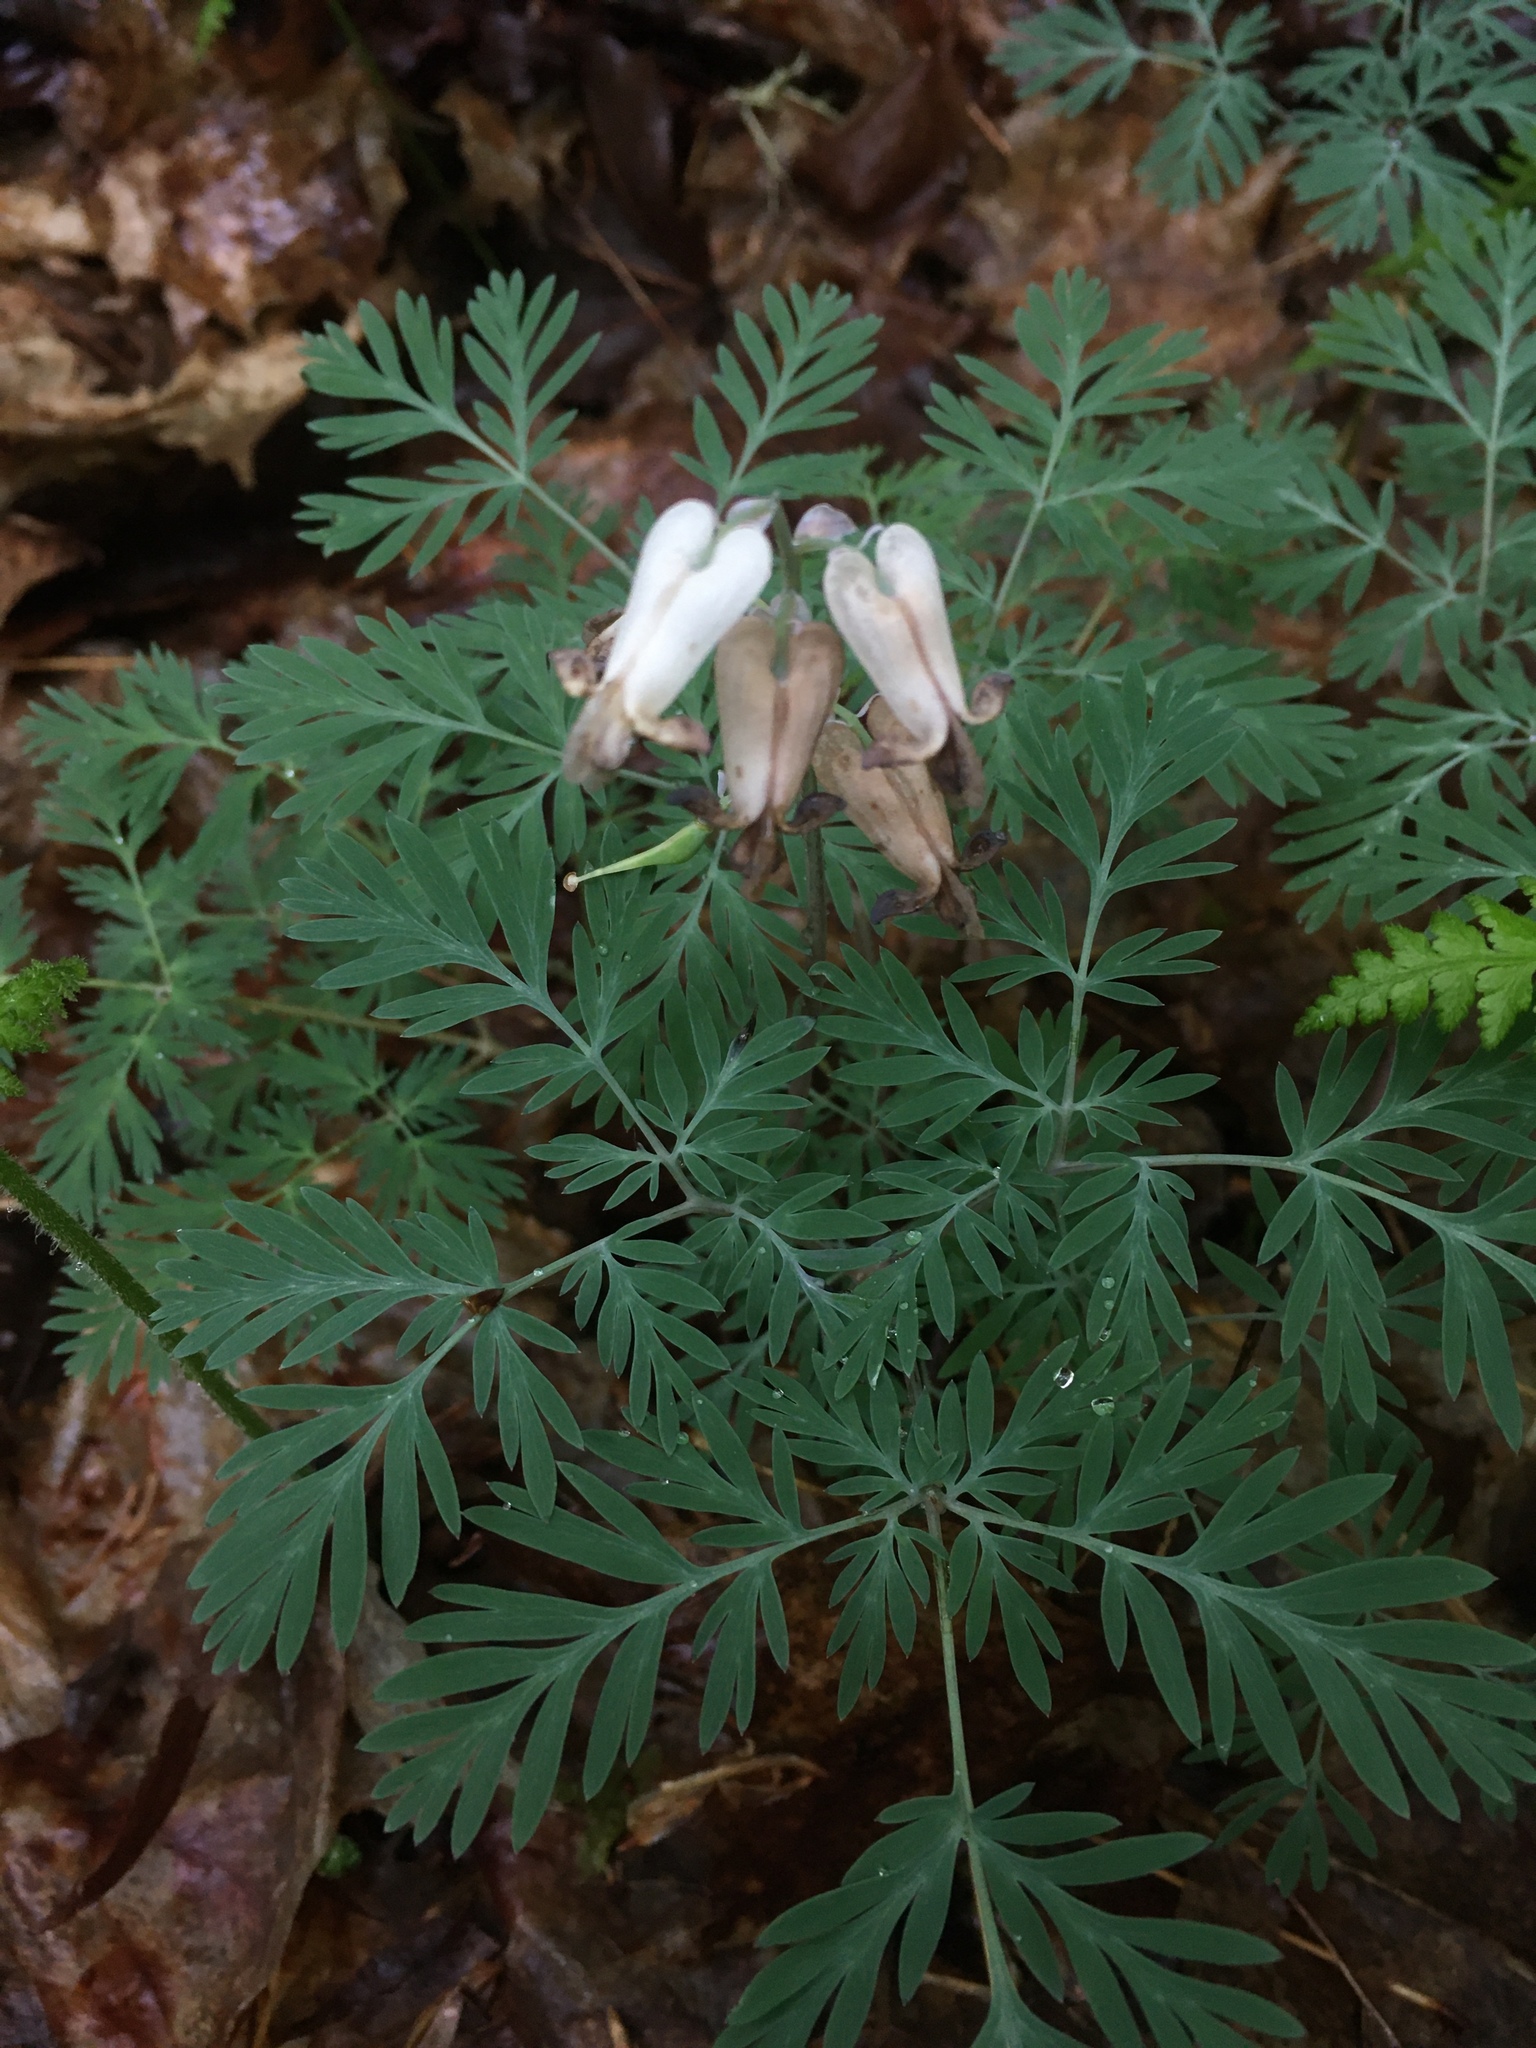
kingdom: Plantae
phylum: Tracheophyta
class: Magnoliopsida
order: Ranunculales
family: Papaveraceae
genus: Dicentra
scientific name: Dicentra canadensis
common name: Squirrel-corn
